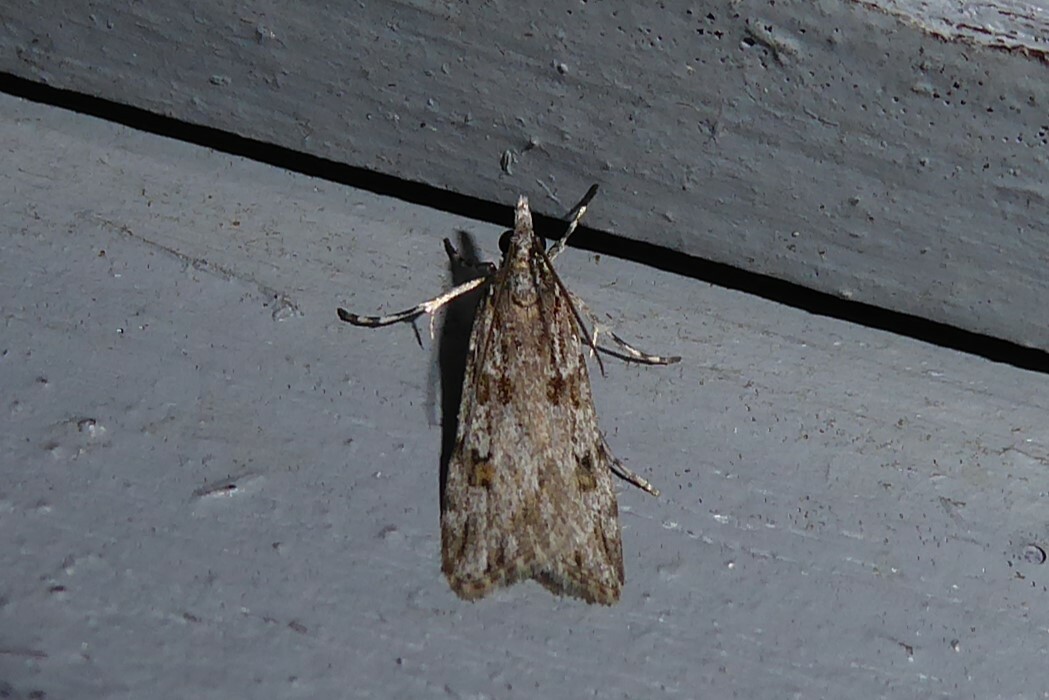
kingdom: Animalia
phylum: Arthropoda
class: Insecta
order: Lepidoptera
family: Crambidae
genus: Scoparia
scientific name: Scoparia chalicodes
